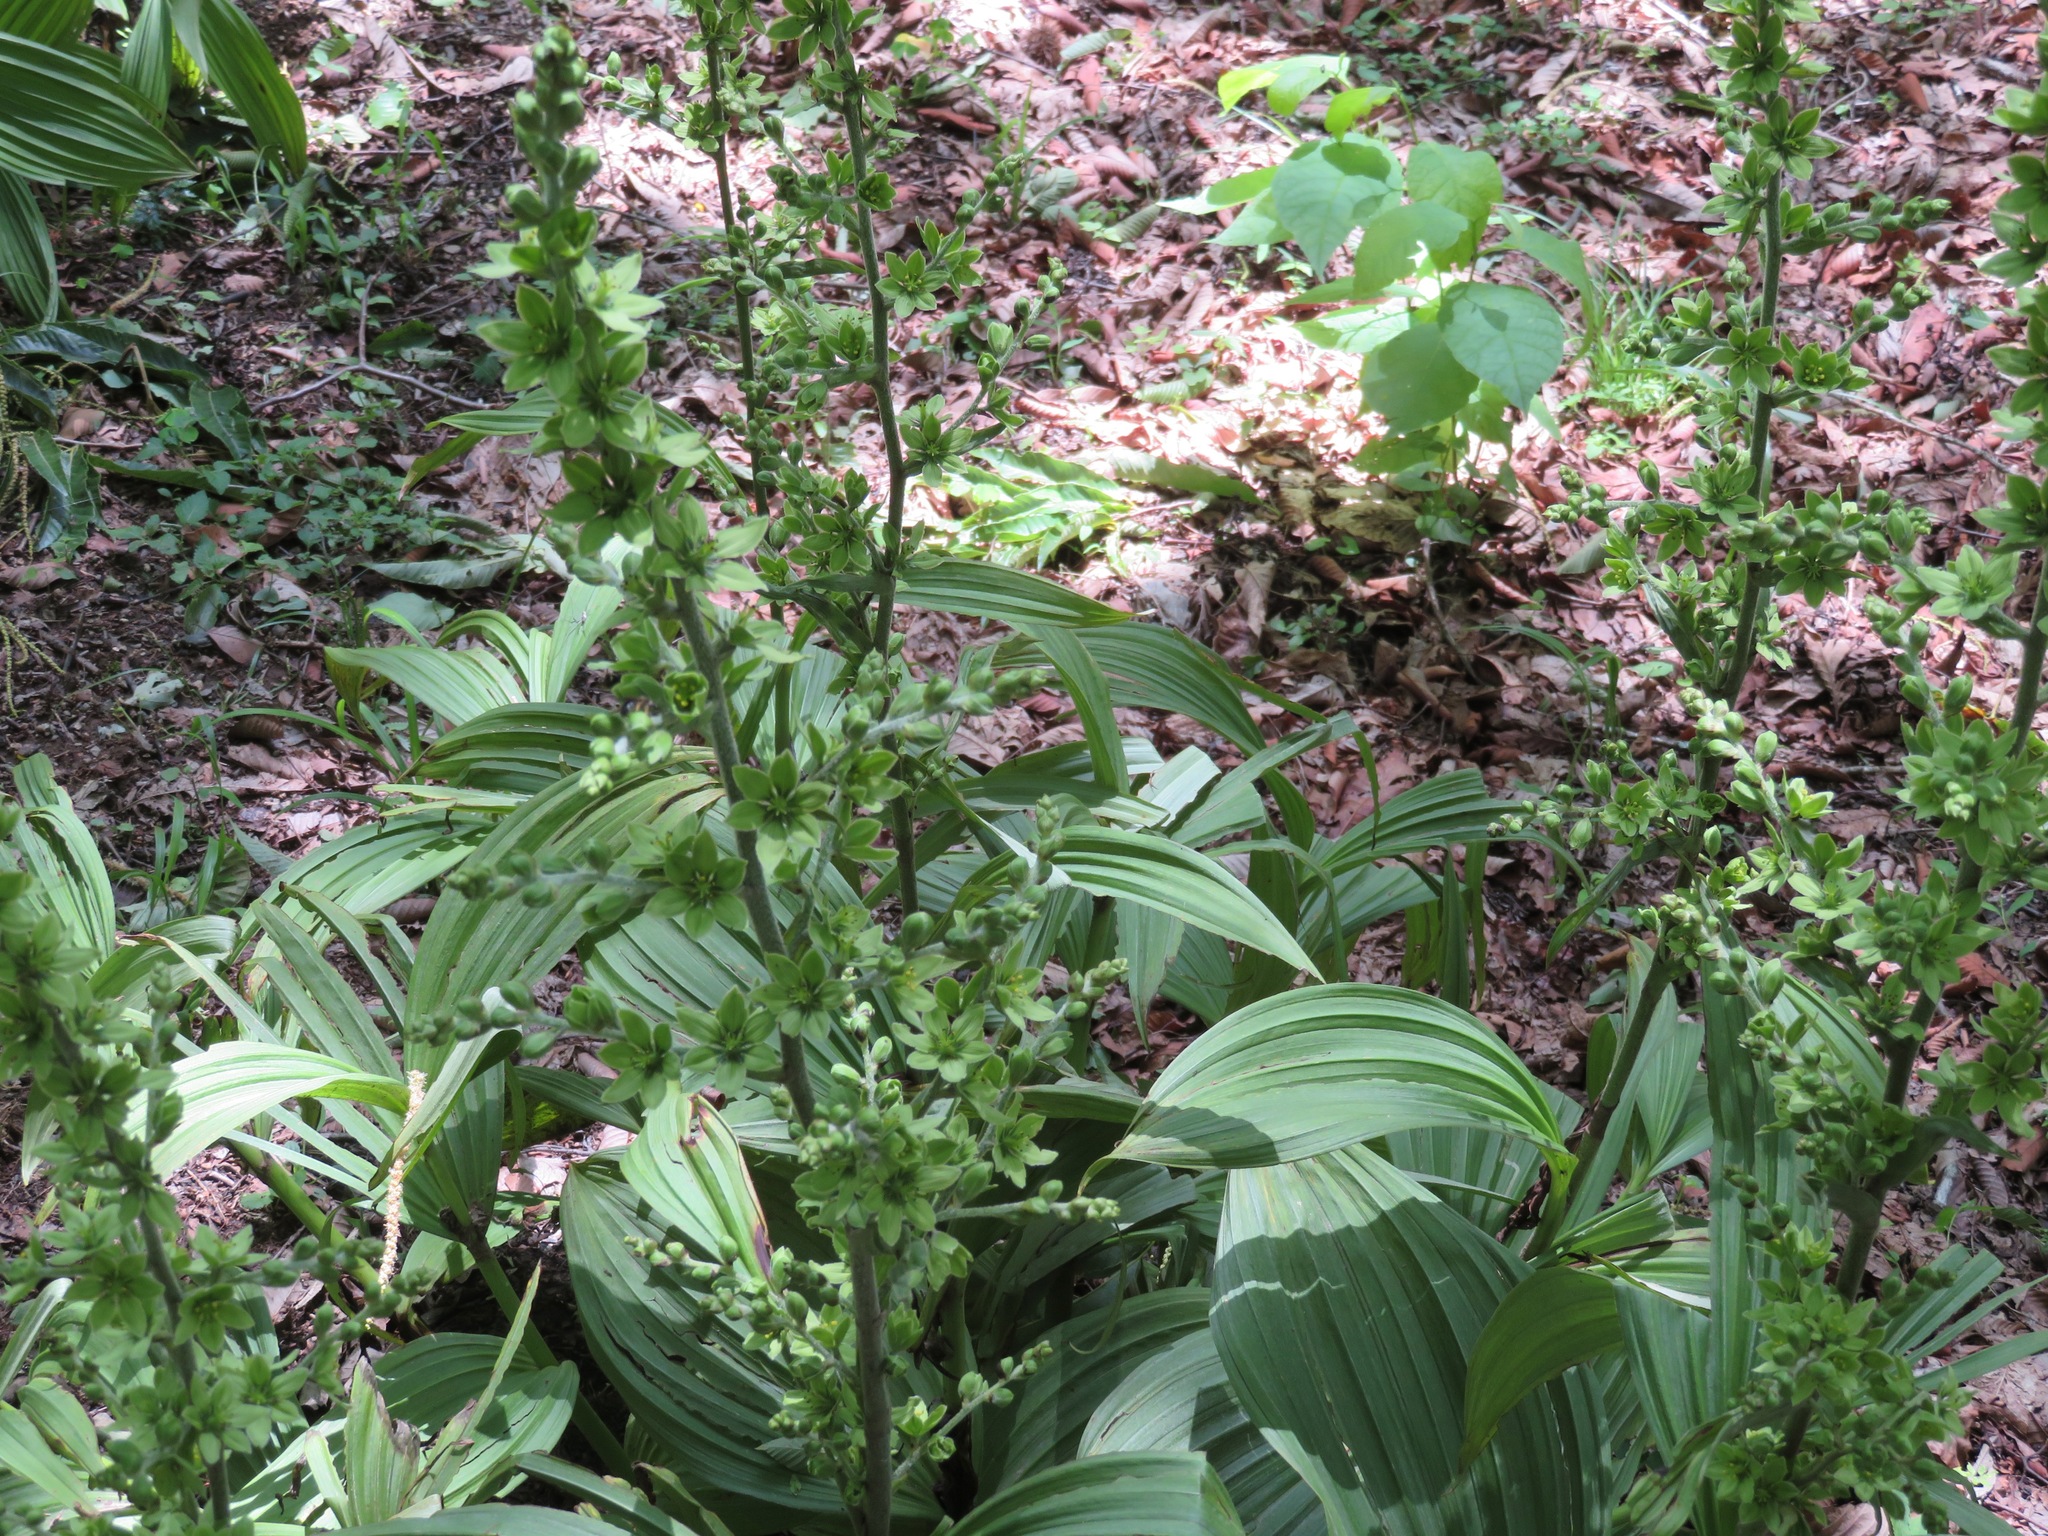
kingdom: Plantae
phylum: Tracheophyta
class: Liliopsida
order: Liliales
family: Melanthiaceae
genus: Veratrum
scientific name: Veratrum oxysepalum
